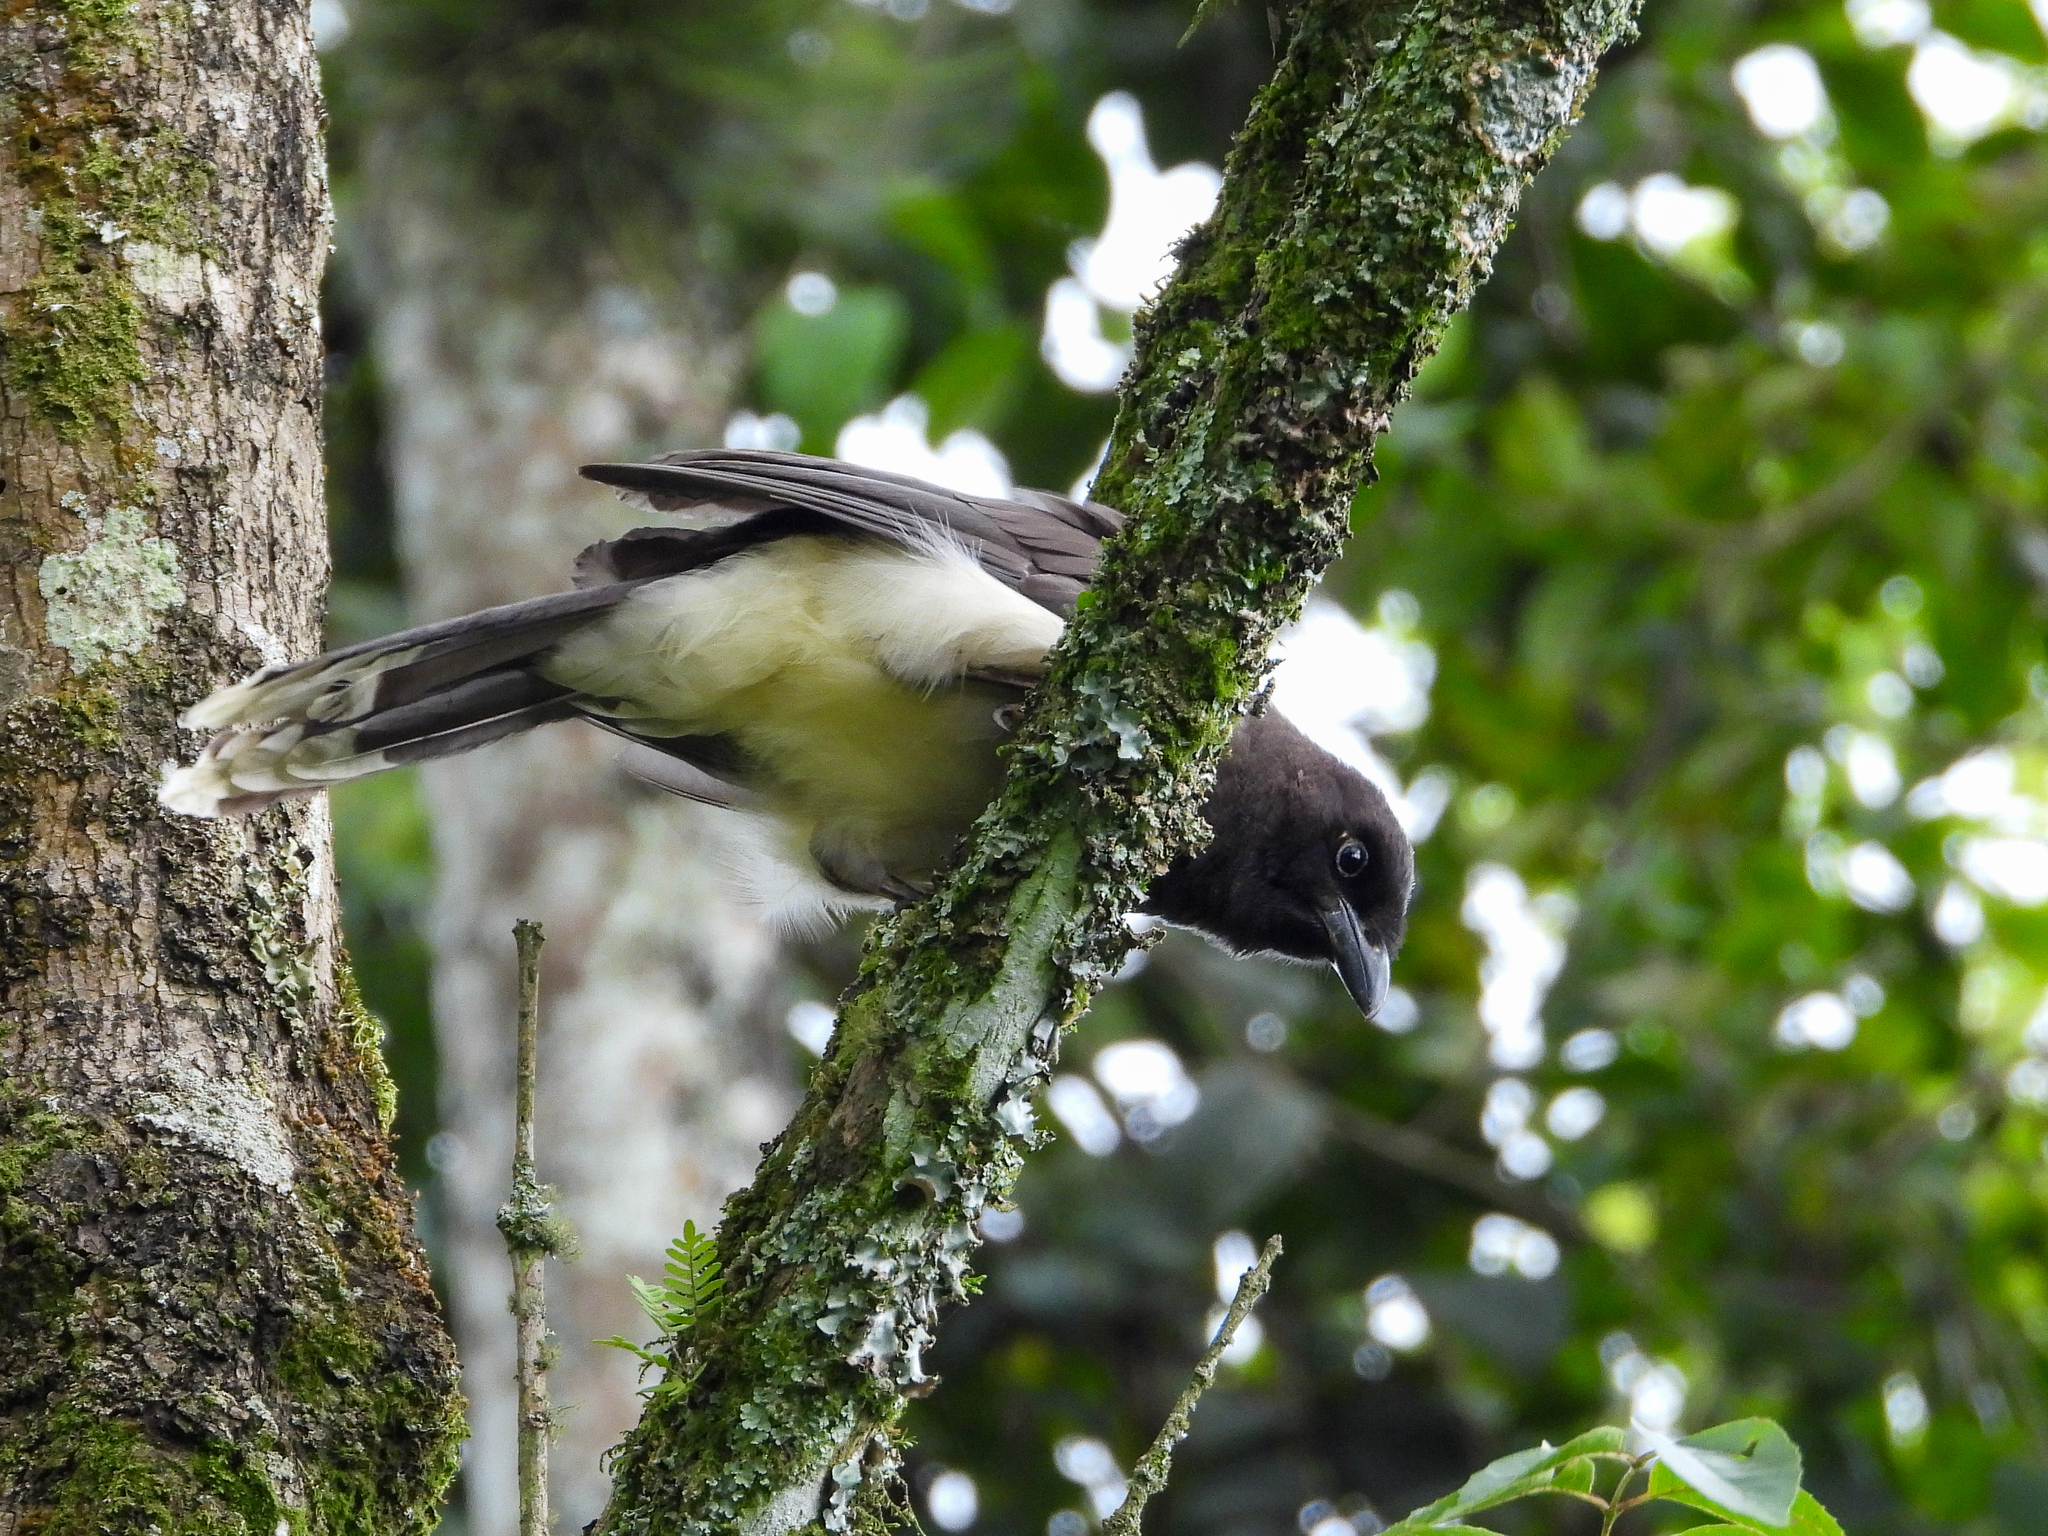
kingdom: Animalia
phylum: Chordata
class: Aves
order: Passeriformes
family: Corvidae
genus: Psilorhinus
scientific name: Psilorhinus morio
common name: Brown jay
